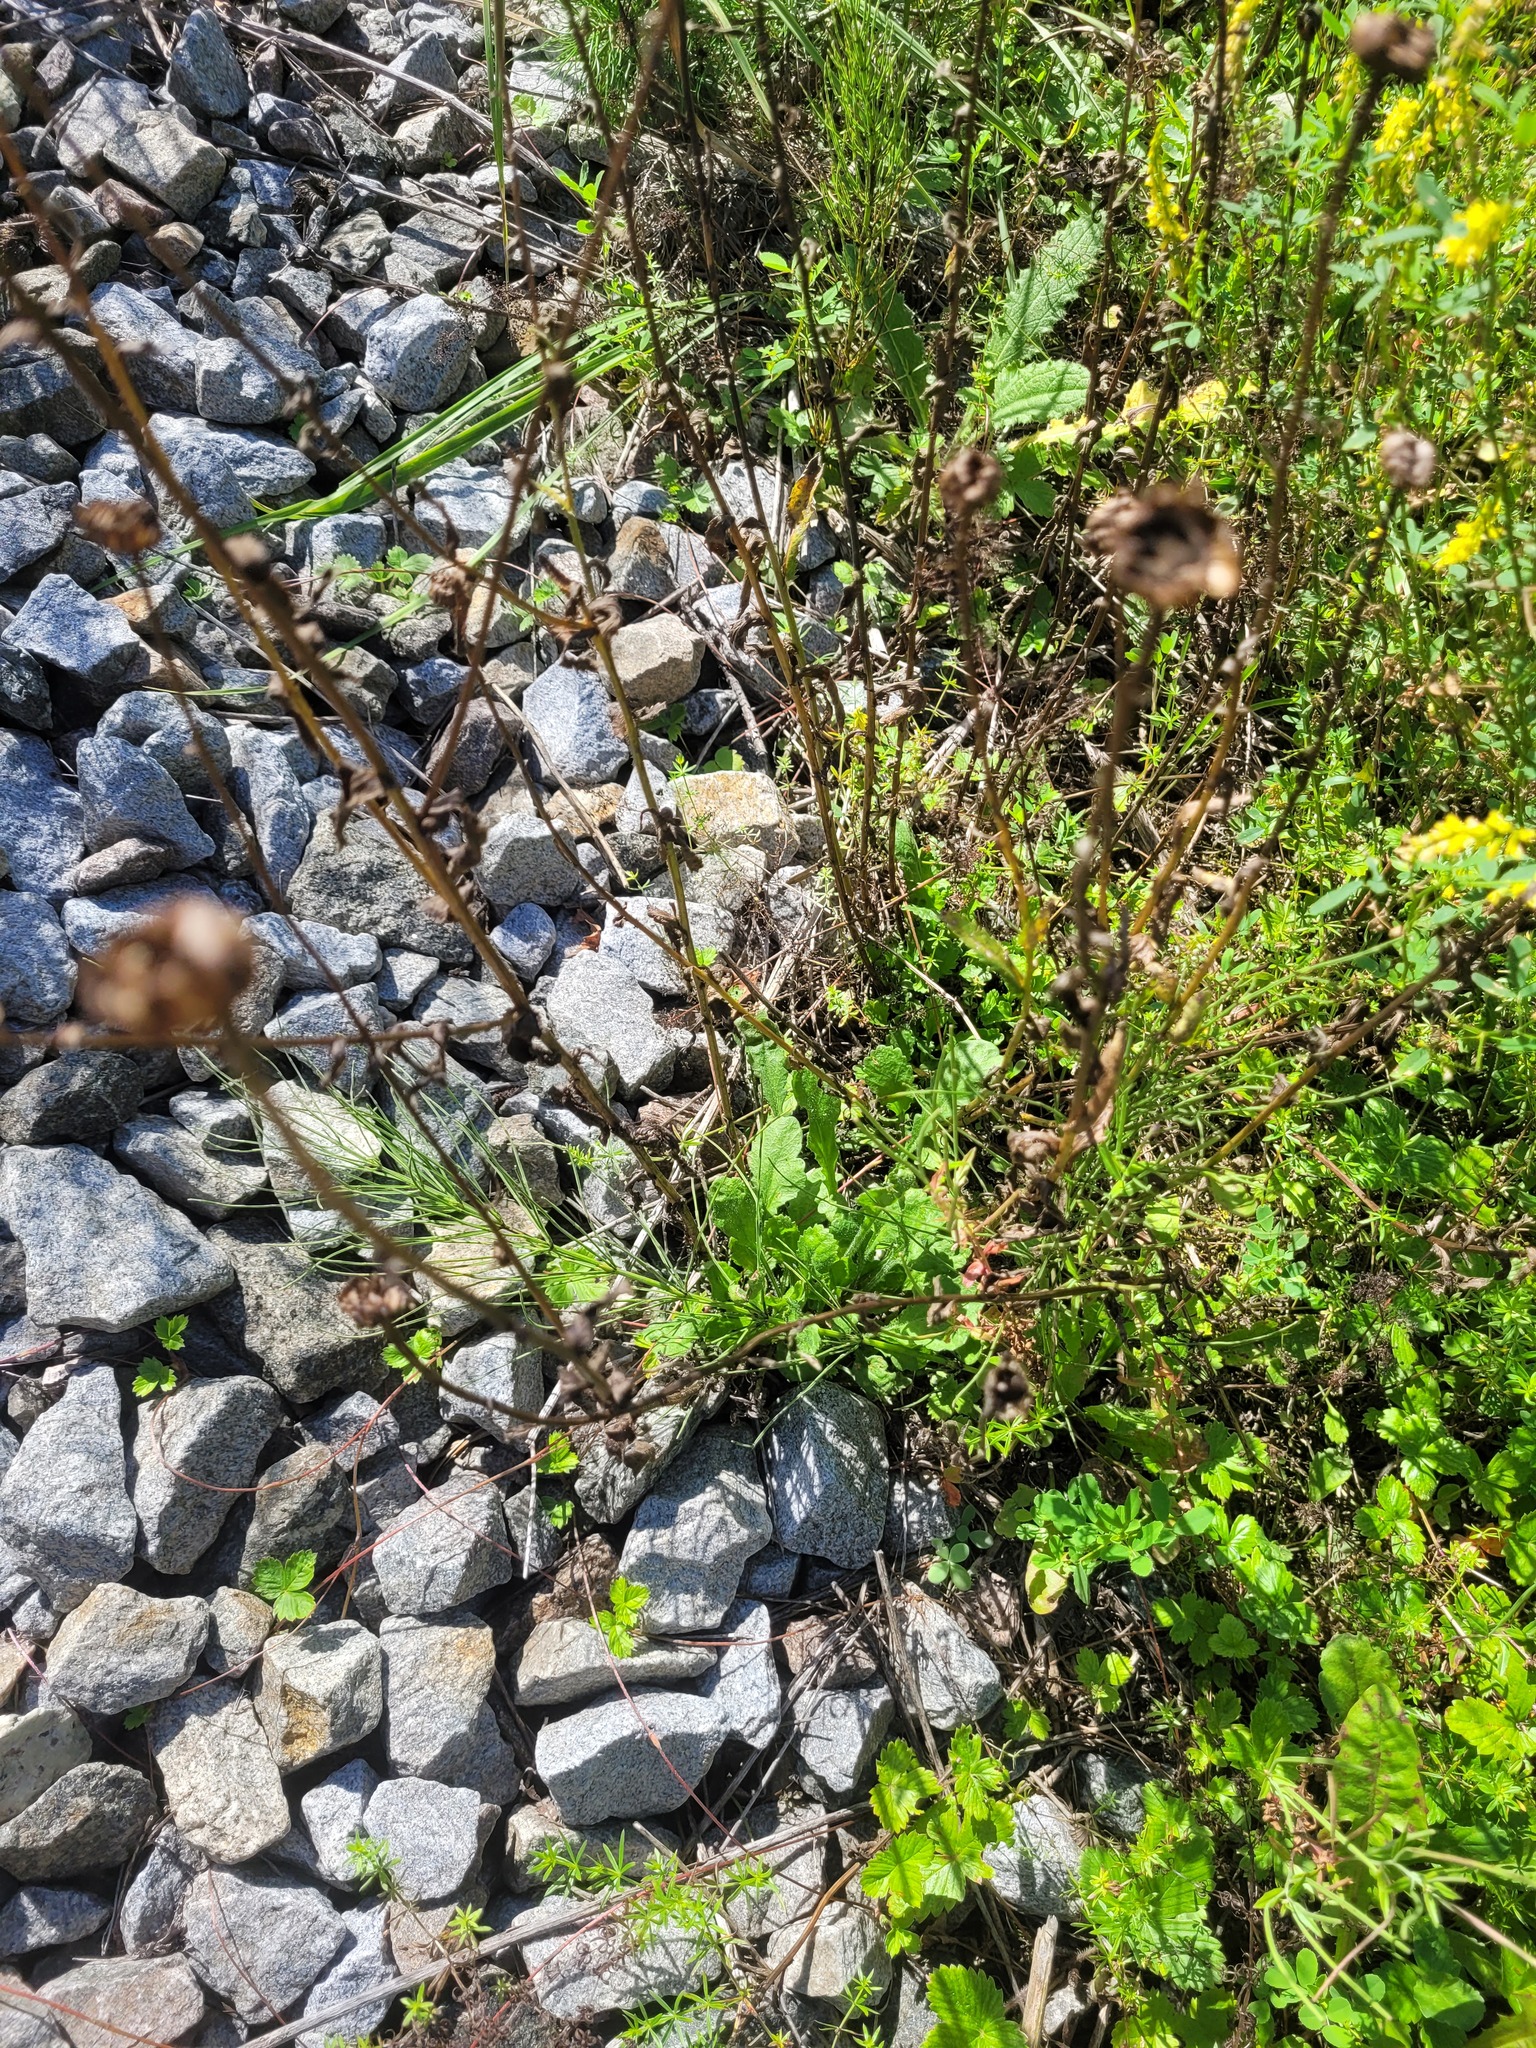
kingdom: Plantae
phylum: Tracheophyta
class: Magnoliopsida
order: Asterales
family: Asteraceae
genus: Leucanthemum
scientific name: Leucanthemum vulgare
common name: Oxeye daisy
